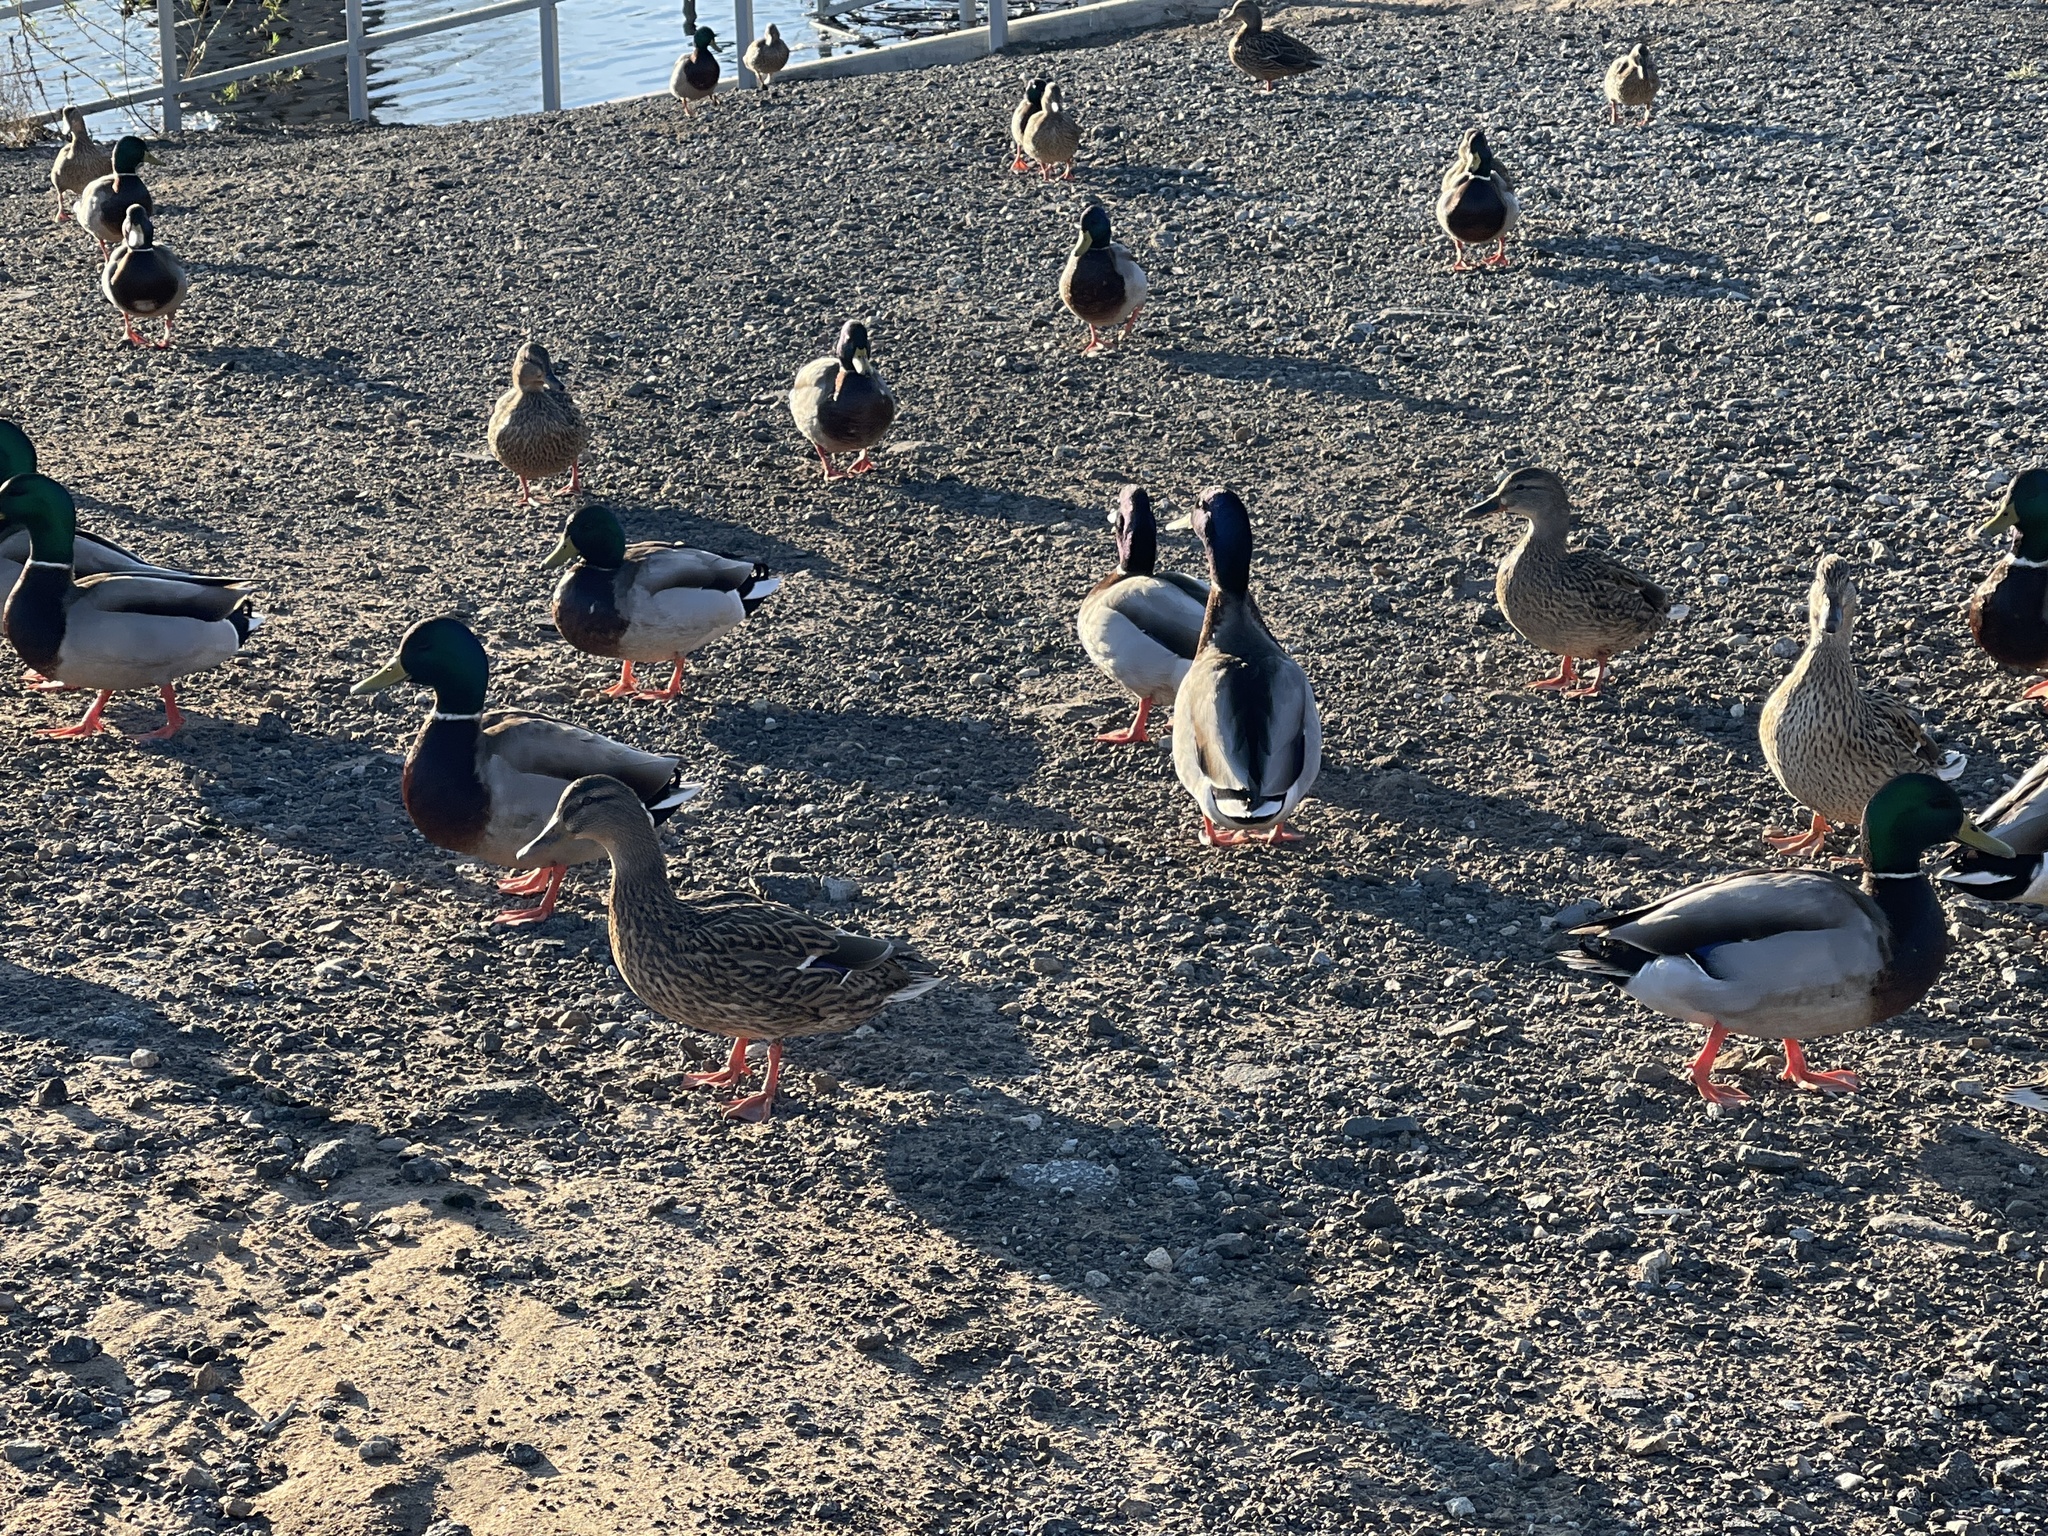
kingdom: Animalia
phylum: Chordata
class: Aves
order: Anseriformes
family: Anatidae
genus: Anas
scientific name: Anas platyrhynchos
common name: Mallard
